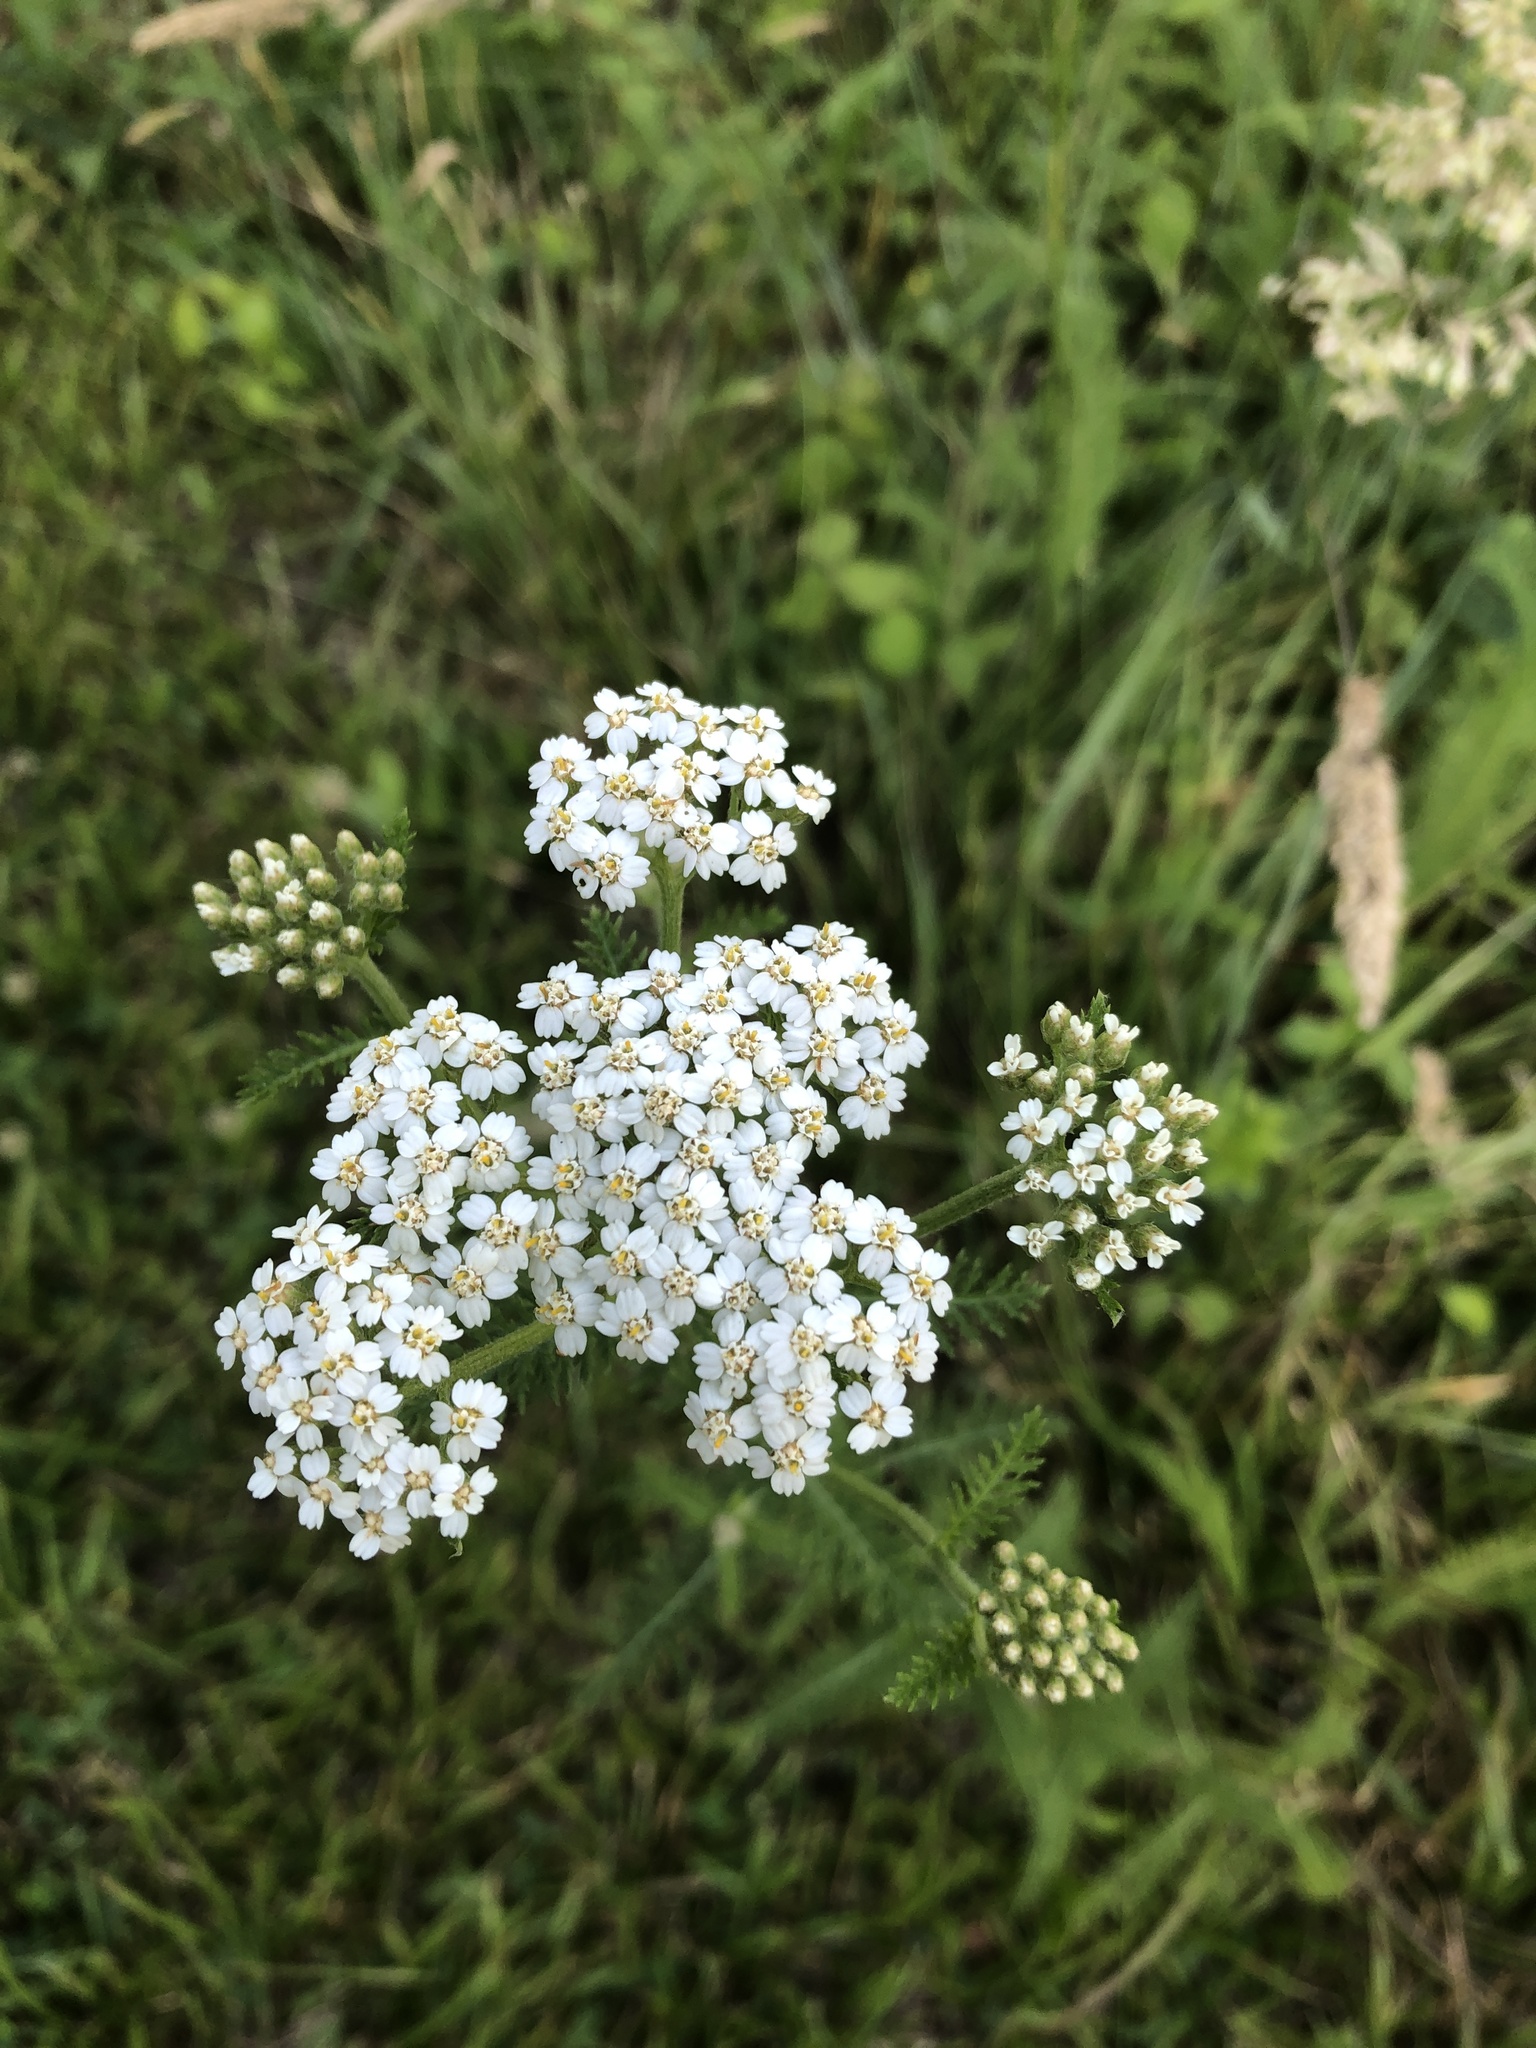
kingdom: Plantae
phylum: Tracheophyta
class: Magnoliopsida
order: Asterales
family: Asteraceae
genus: Achillea
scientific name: Achillea millefolium
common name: Yarrow
